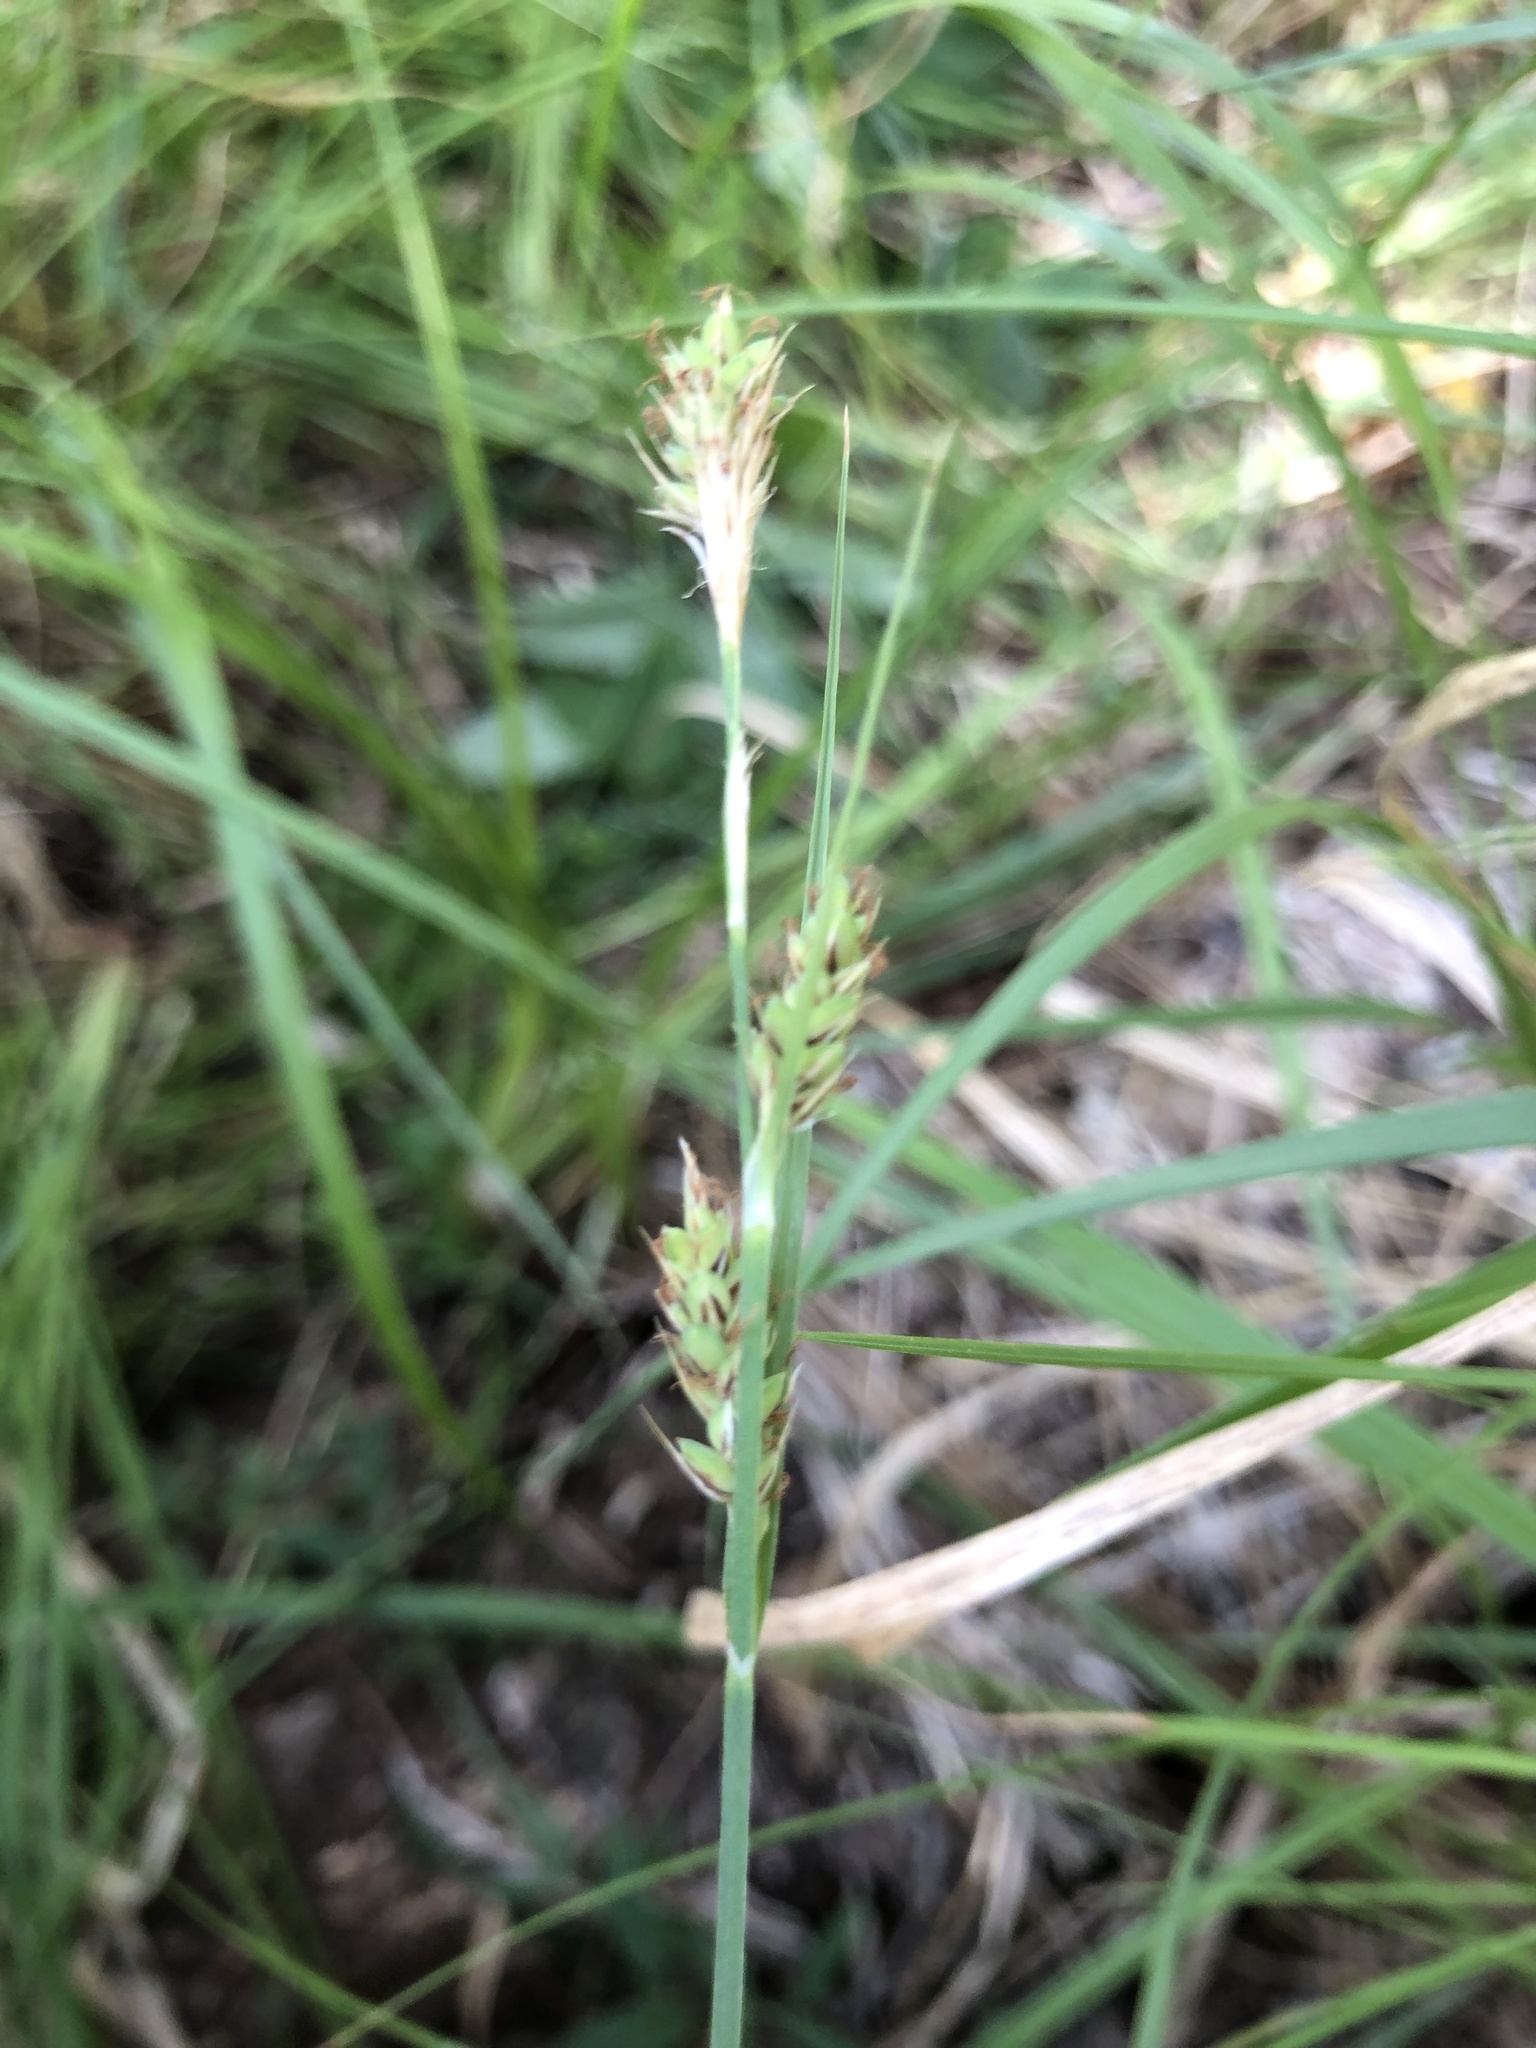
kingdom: Plantae
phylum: Tracheophyta
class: Liliopsida
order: Poales
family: Cyperaceae
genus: Carex
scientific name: Carex buxbaumii
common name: Club sedge
